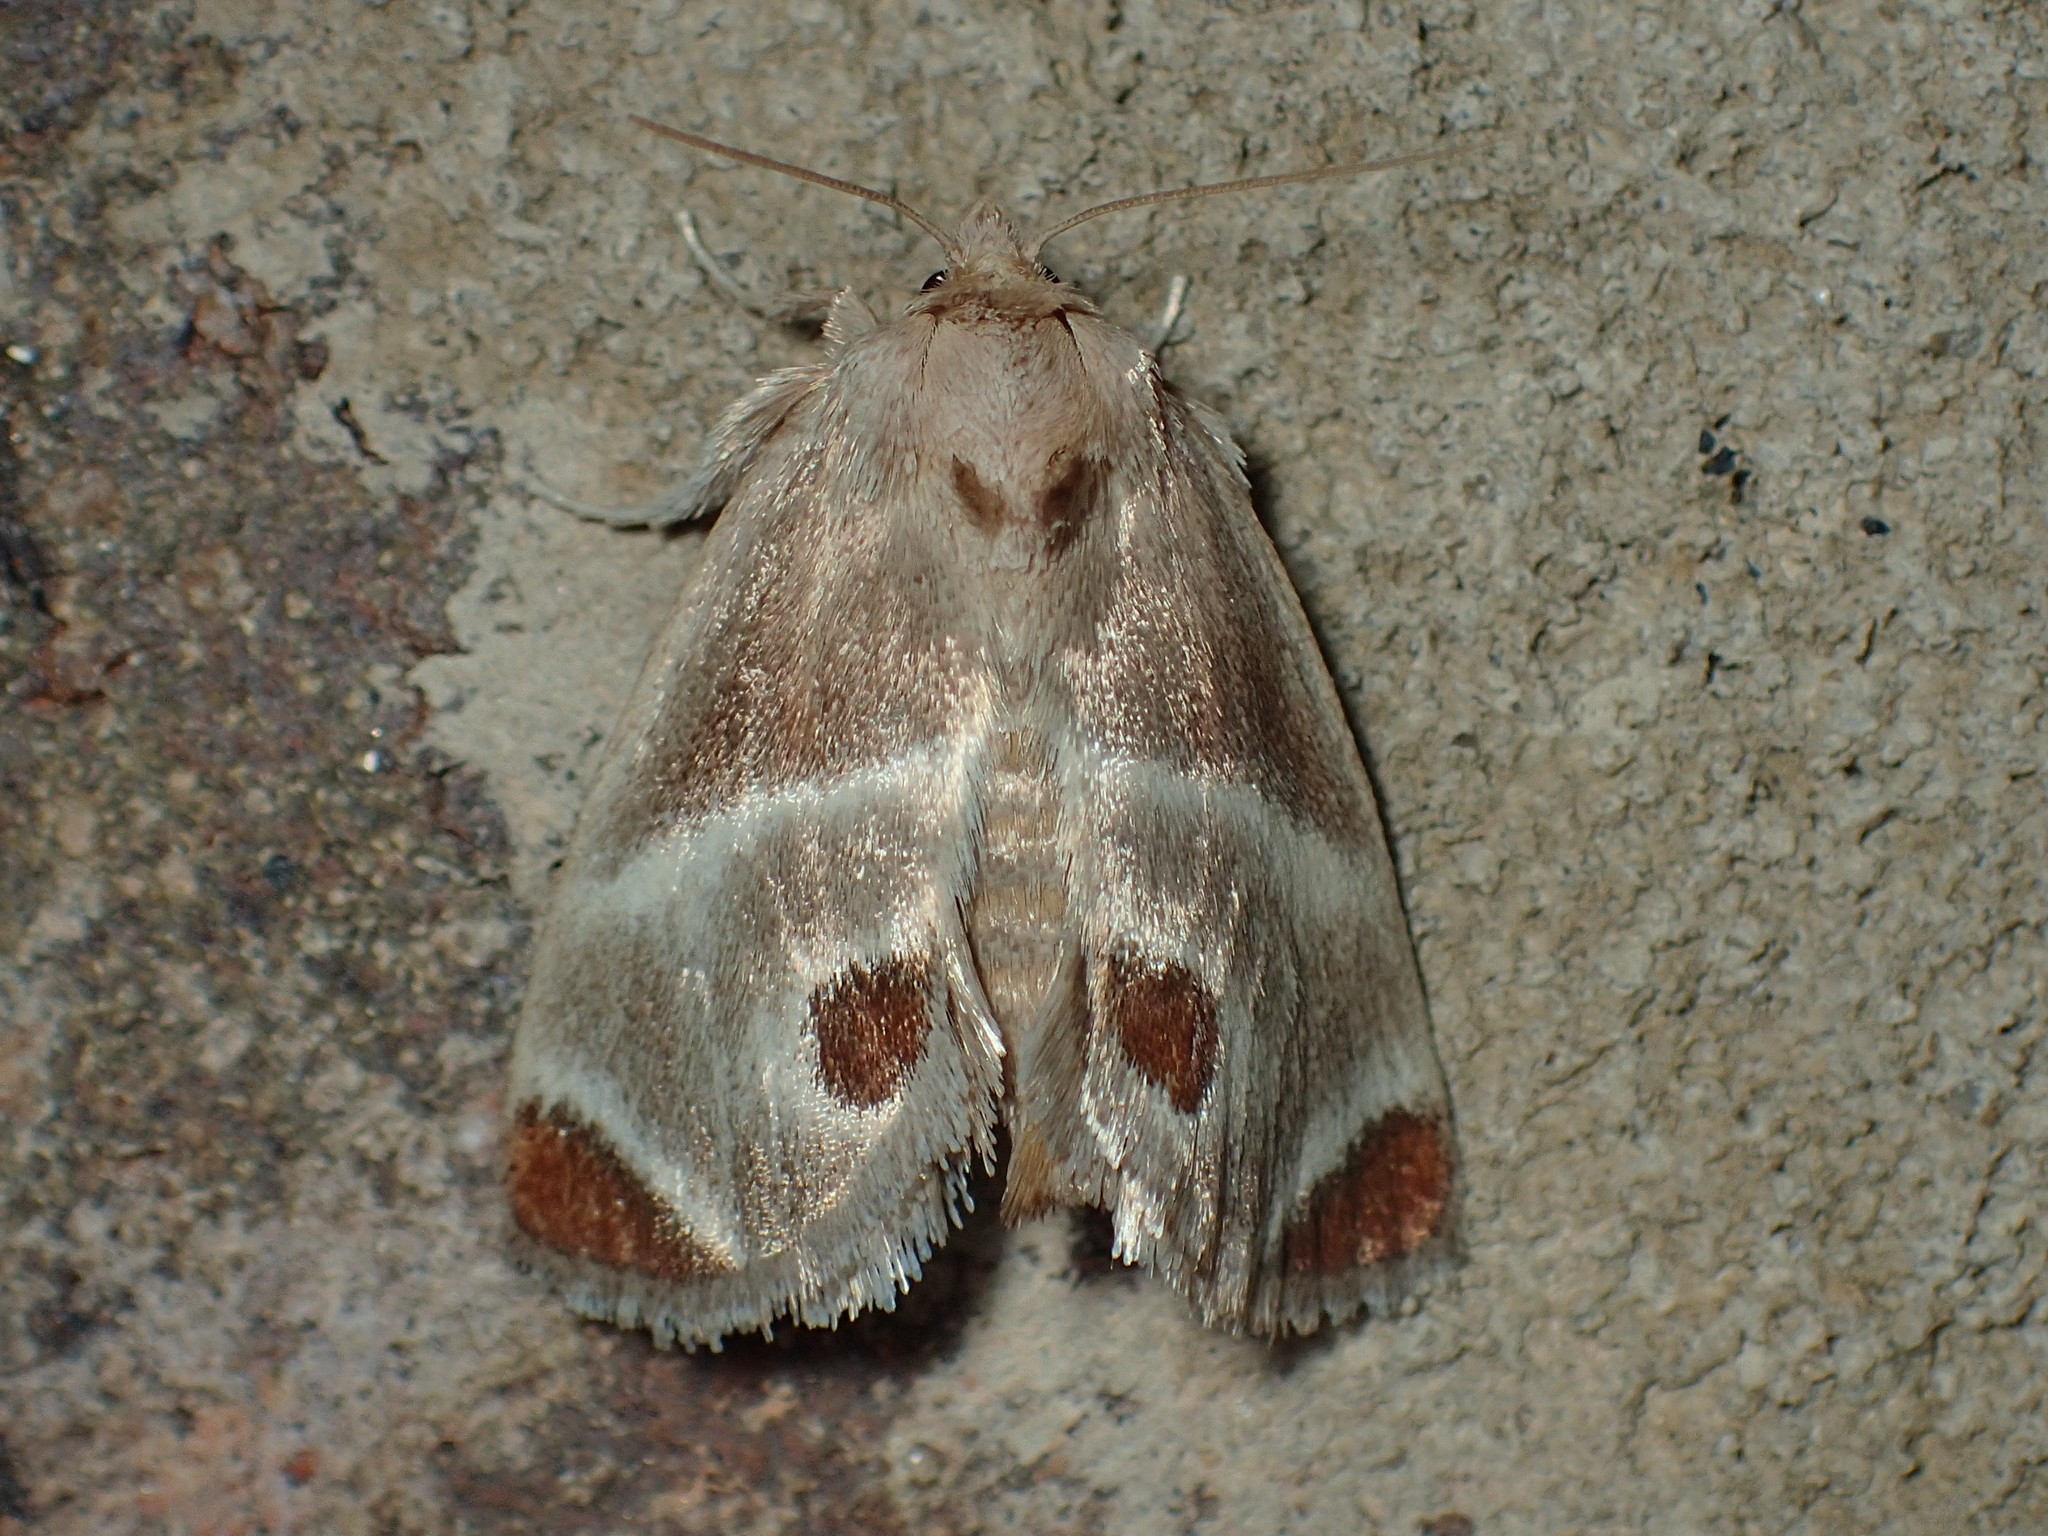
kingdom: Animalia
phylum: Arthropoda
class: Insecta
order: Lepidoptera
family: Limacodidae
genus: Apoda
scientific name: Apoda biguttata
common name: Shagreened slug moth
